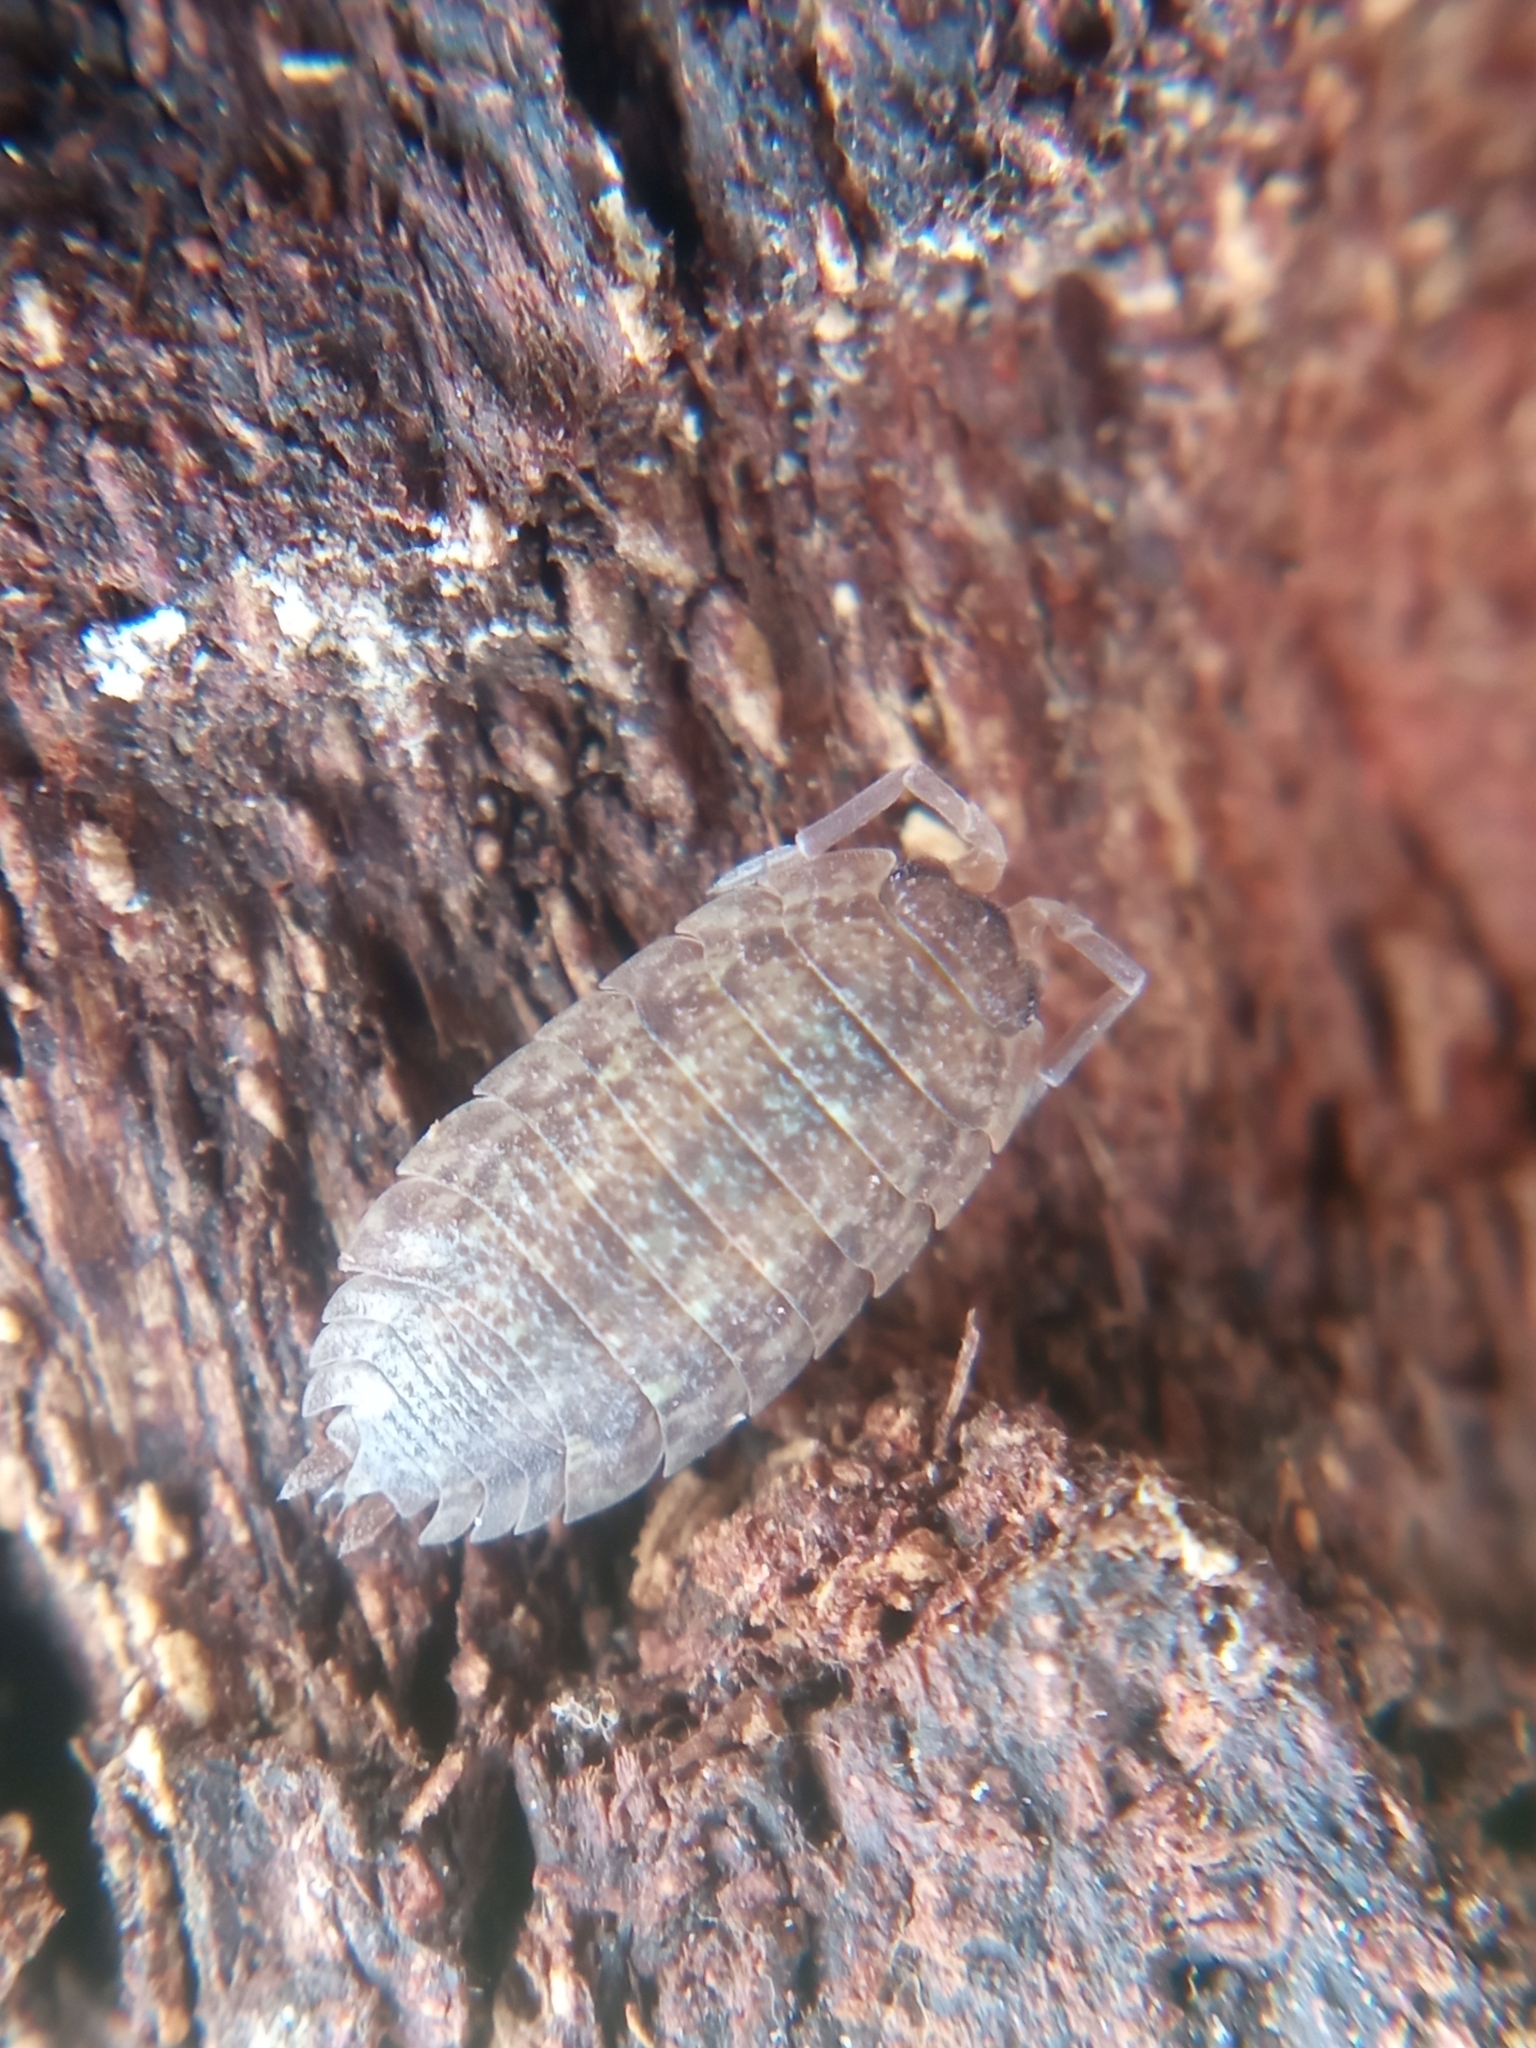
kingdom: Animalia
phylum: Arthropoda
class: Malacostraca
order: Isopoda
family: Porcellionidae
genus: Porcellio
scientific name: Porcellio scaber
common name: Common rough woodlouse
